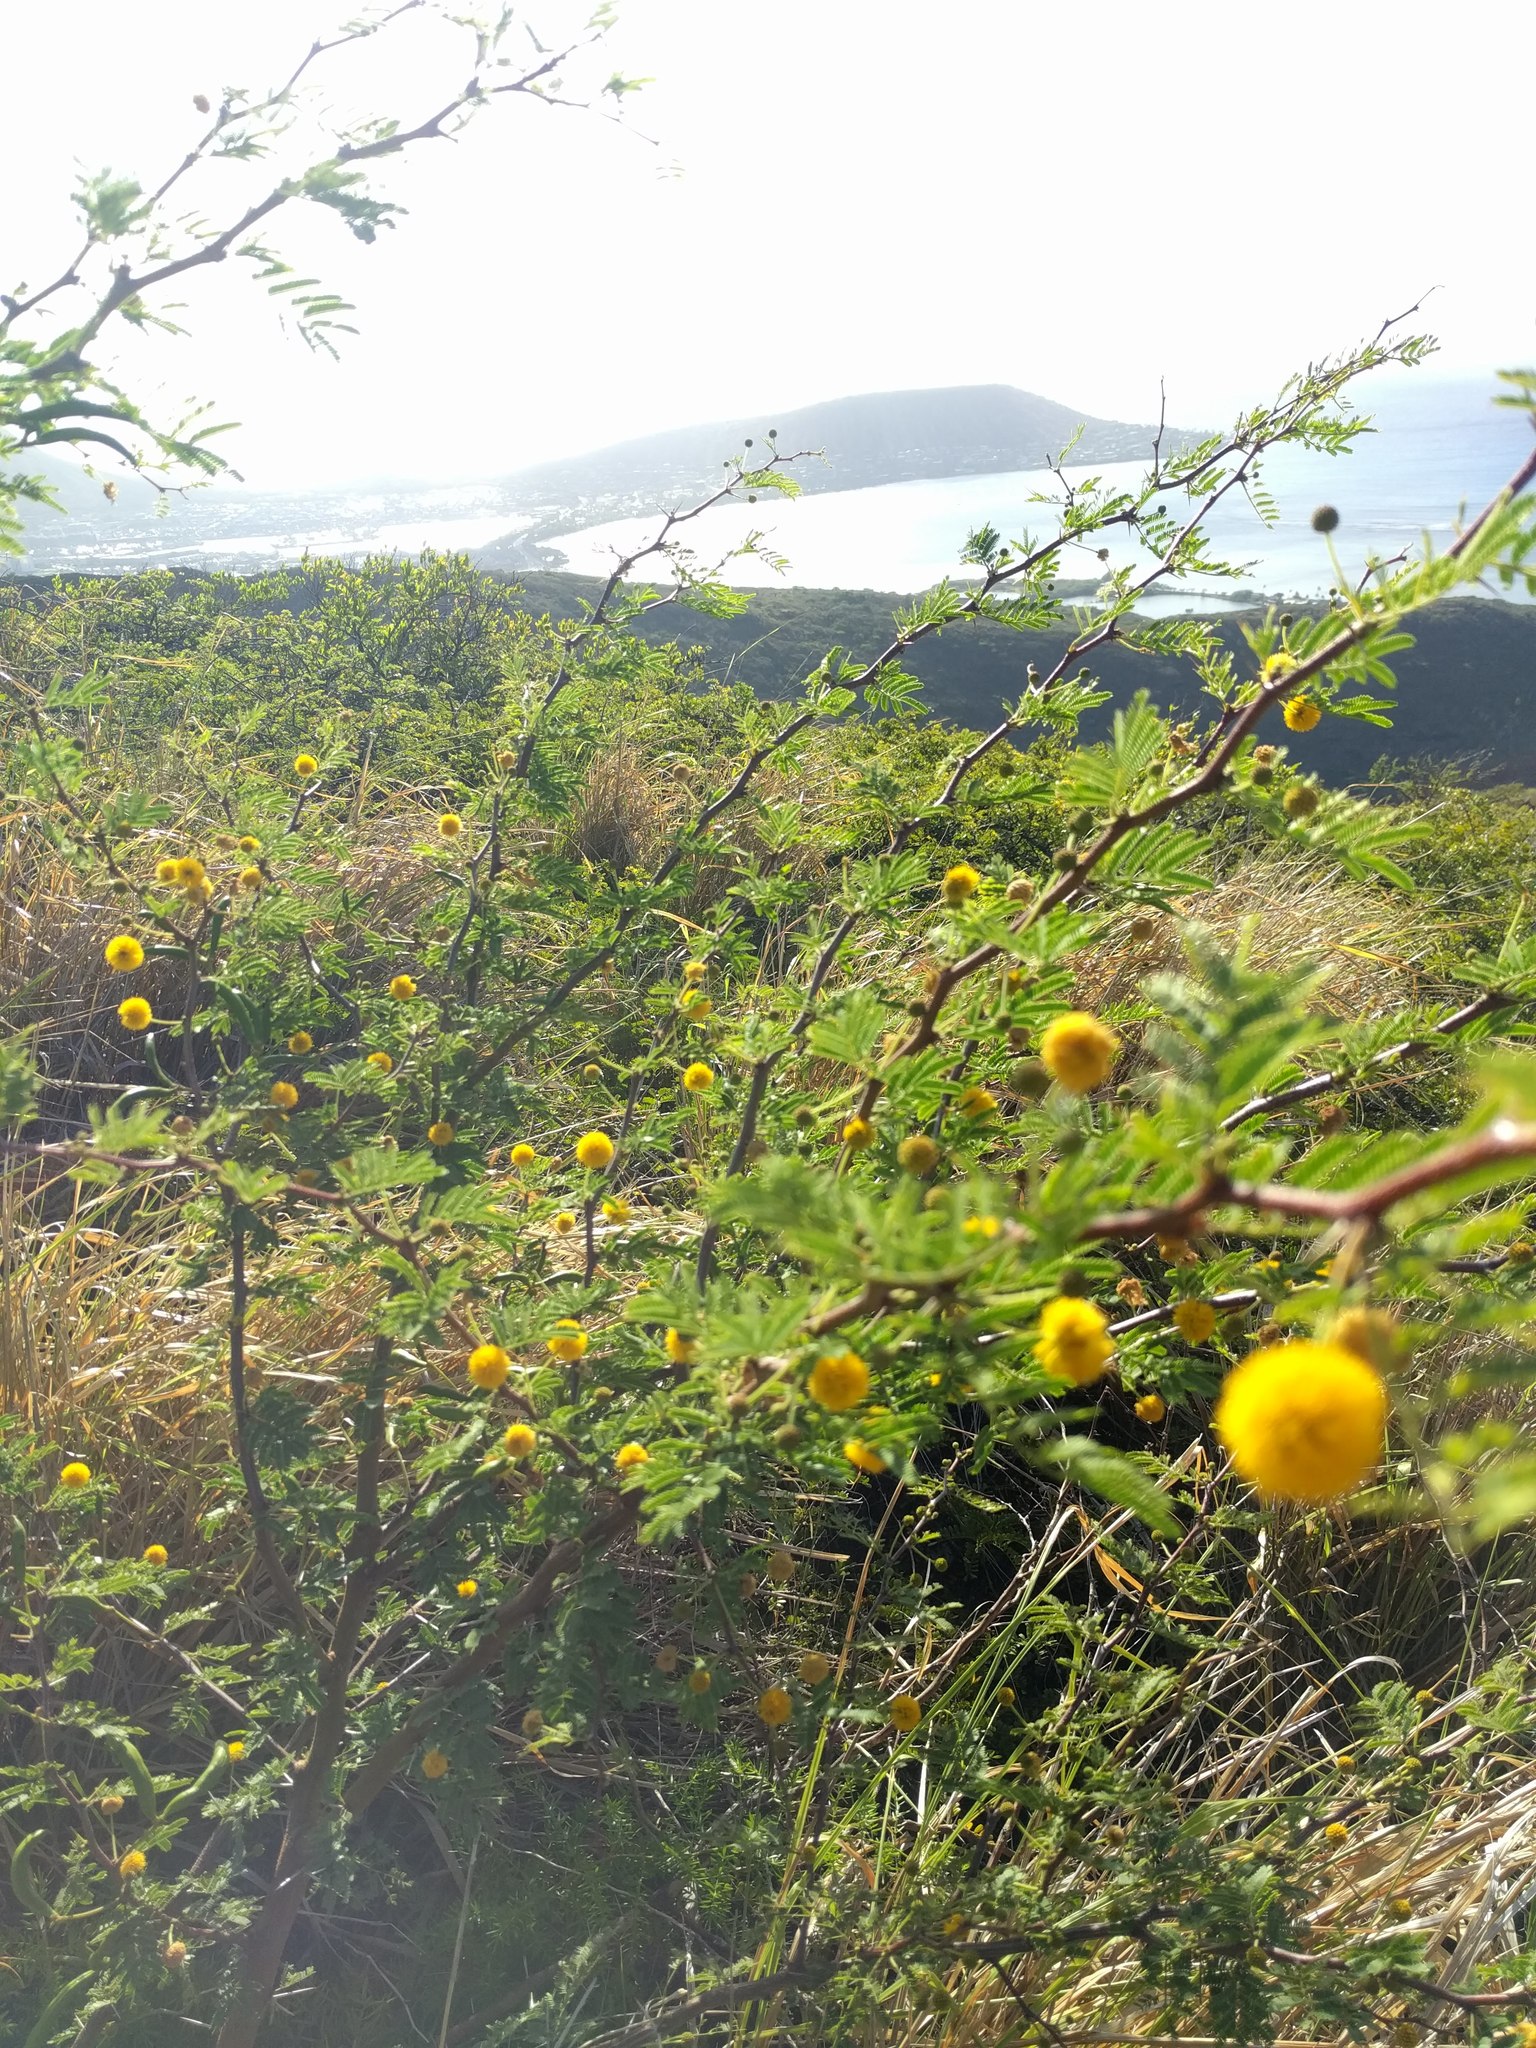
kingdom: Plantae
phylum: Tracheophyta
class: Magnoliopsida
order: Fabales
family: Fabaceae
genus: Vachellia
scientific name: Vachellia farnesiana
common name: Sweet acacia
